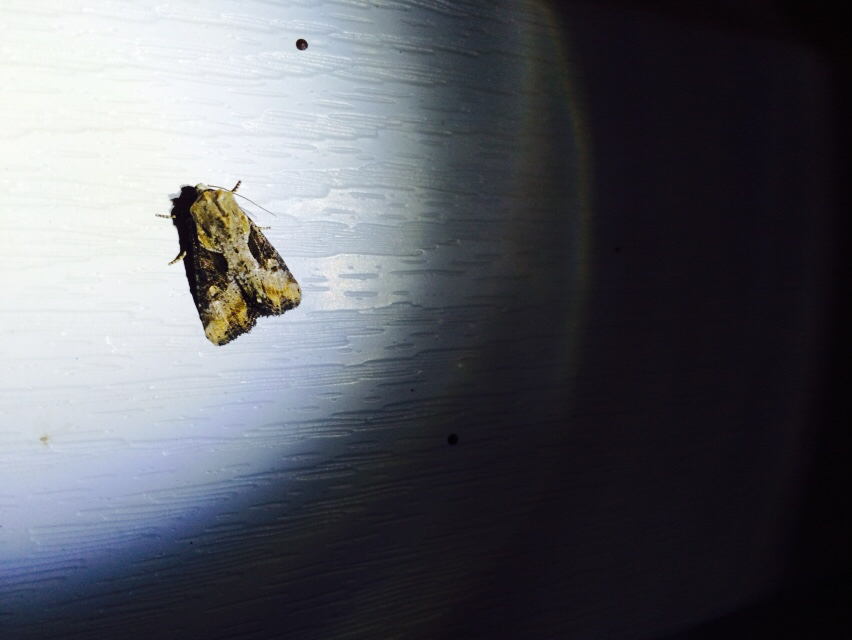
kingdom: Animalia
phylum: Arthropoda
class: Insecta
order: Lepidoptera
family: Noctuidae
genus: Lateroligia
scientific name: Lateroligia ophiogramma
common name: Double lobed
